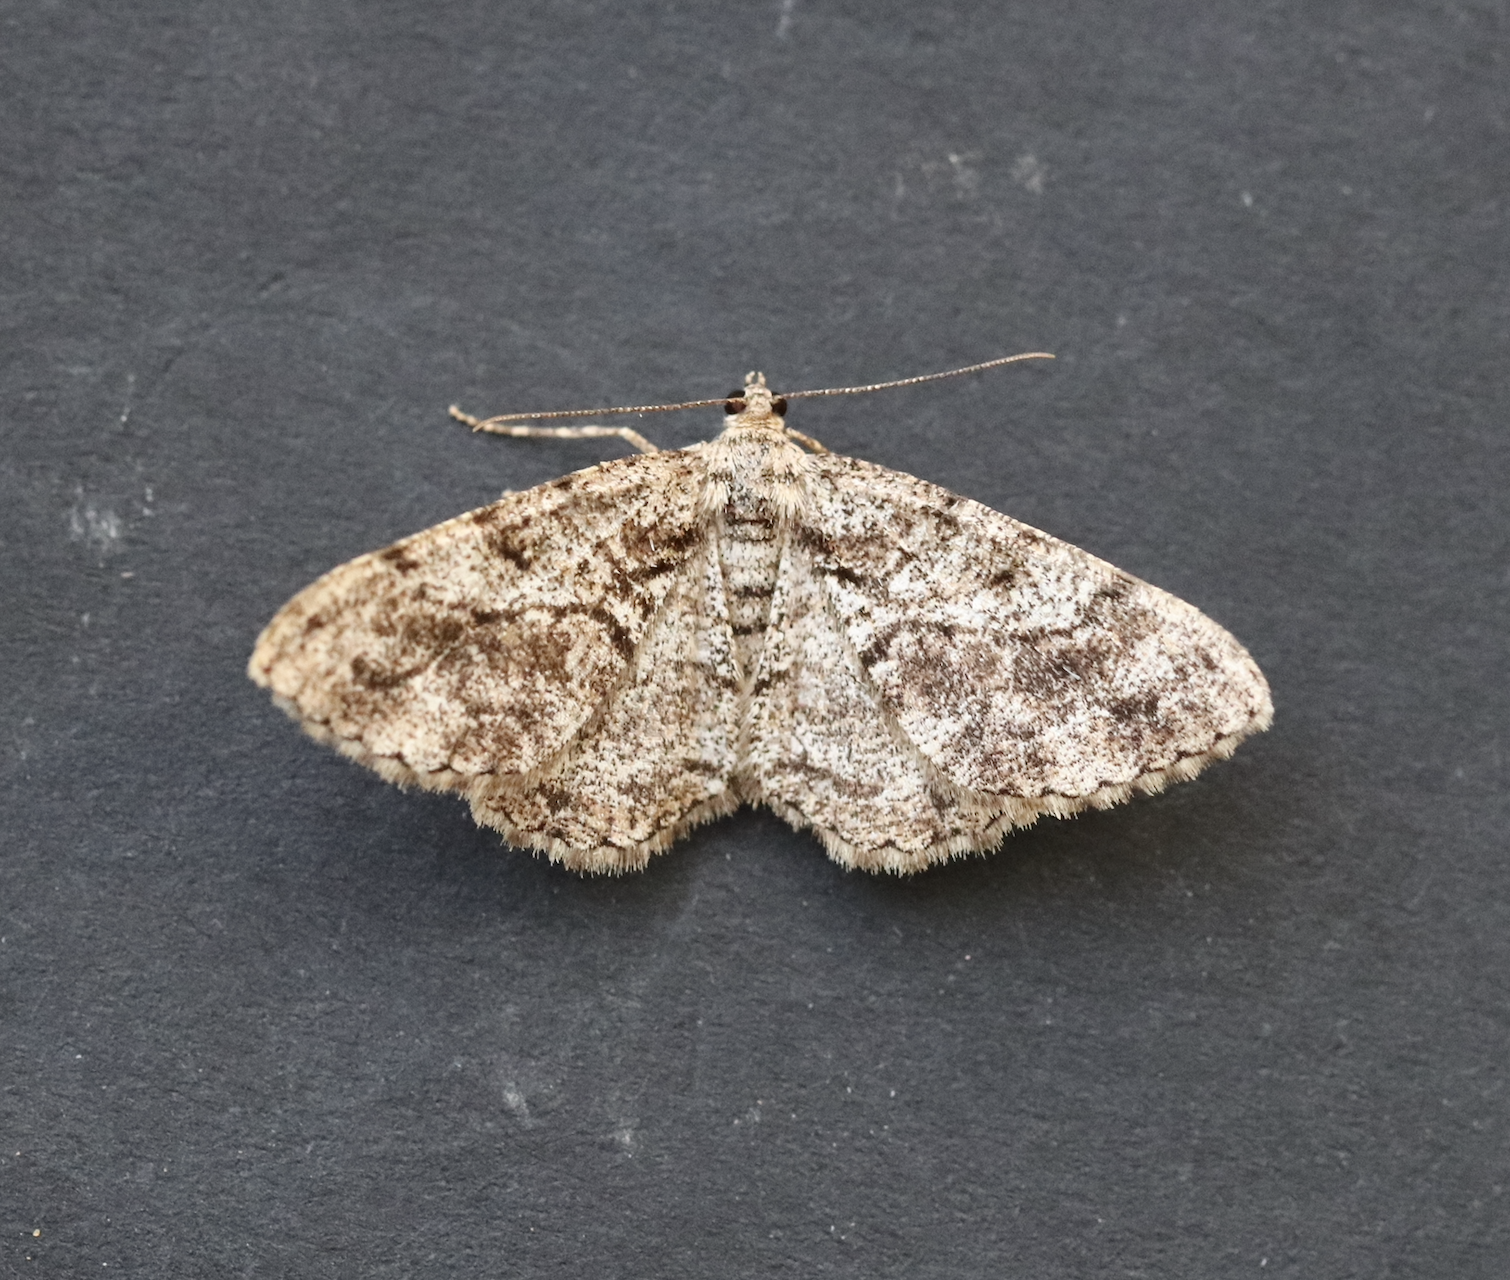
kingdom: Animalia
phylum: Arthropoda
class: Insecta
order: Lepidoptera
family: Geometridae
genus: Peribatodes
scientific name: Peribatodes secundaria
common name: Feathered beauty
